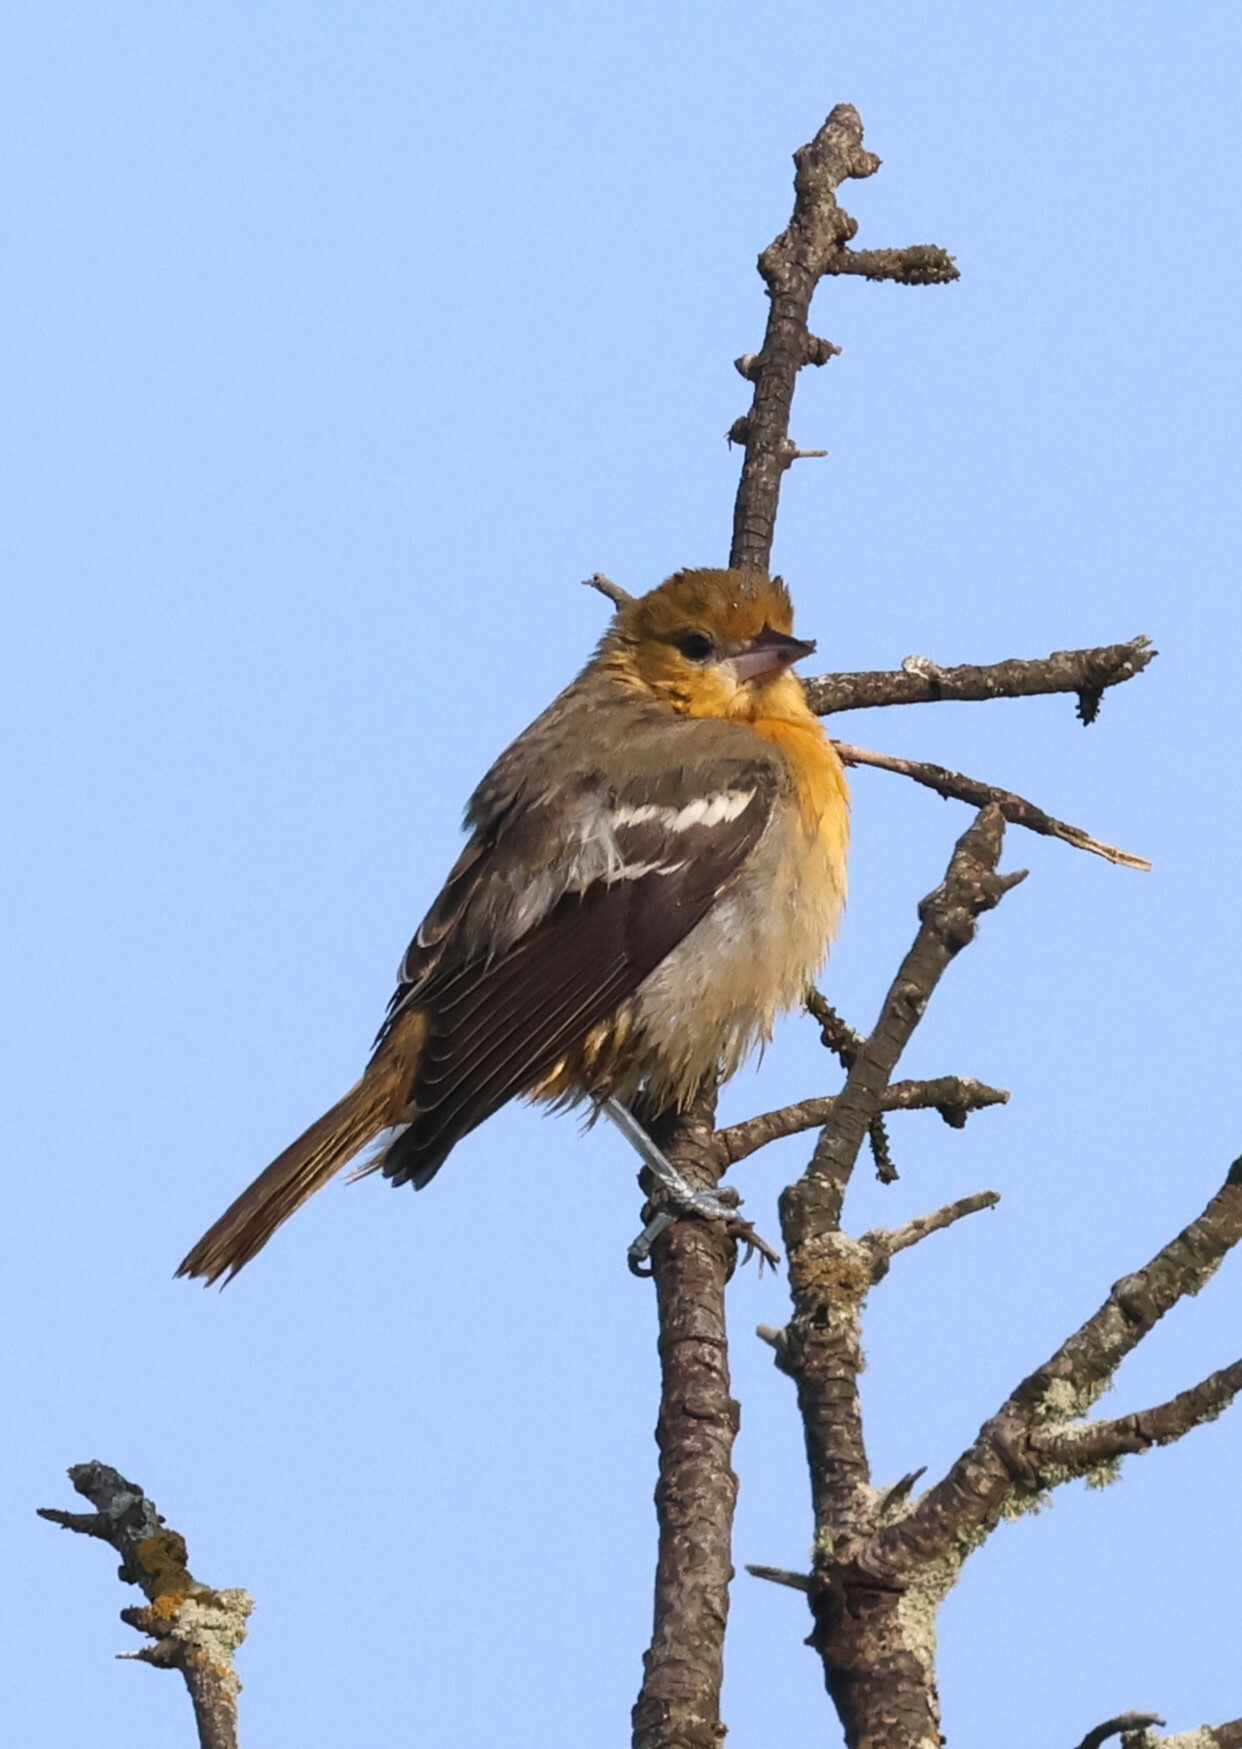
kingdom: Animalia
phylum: Chordata
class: Aves
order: Passeriformes
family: Icteridae
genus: Icterus
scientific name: Icterus galbula
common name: Baltimore oriole
